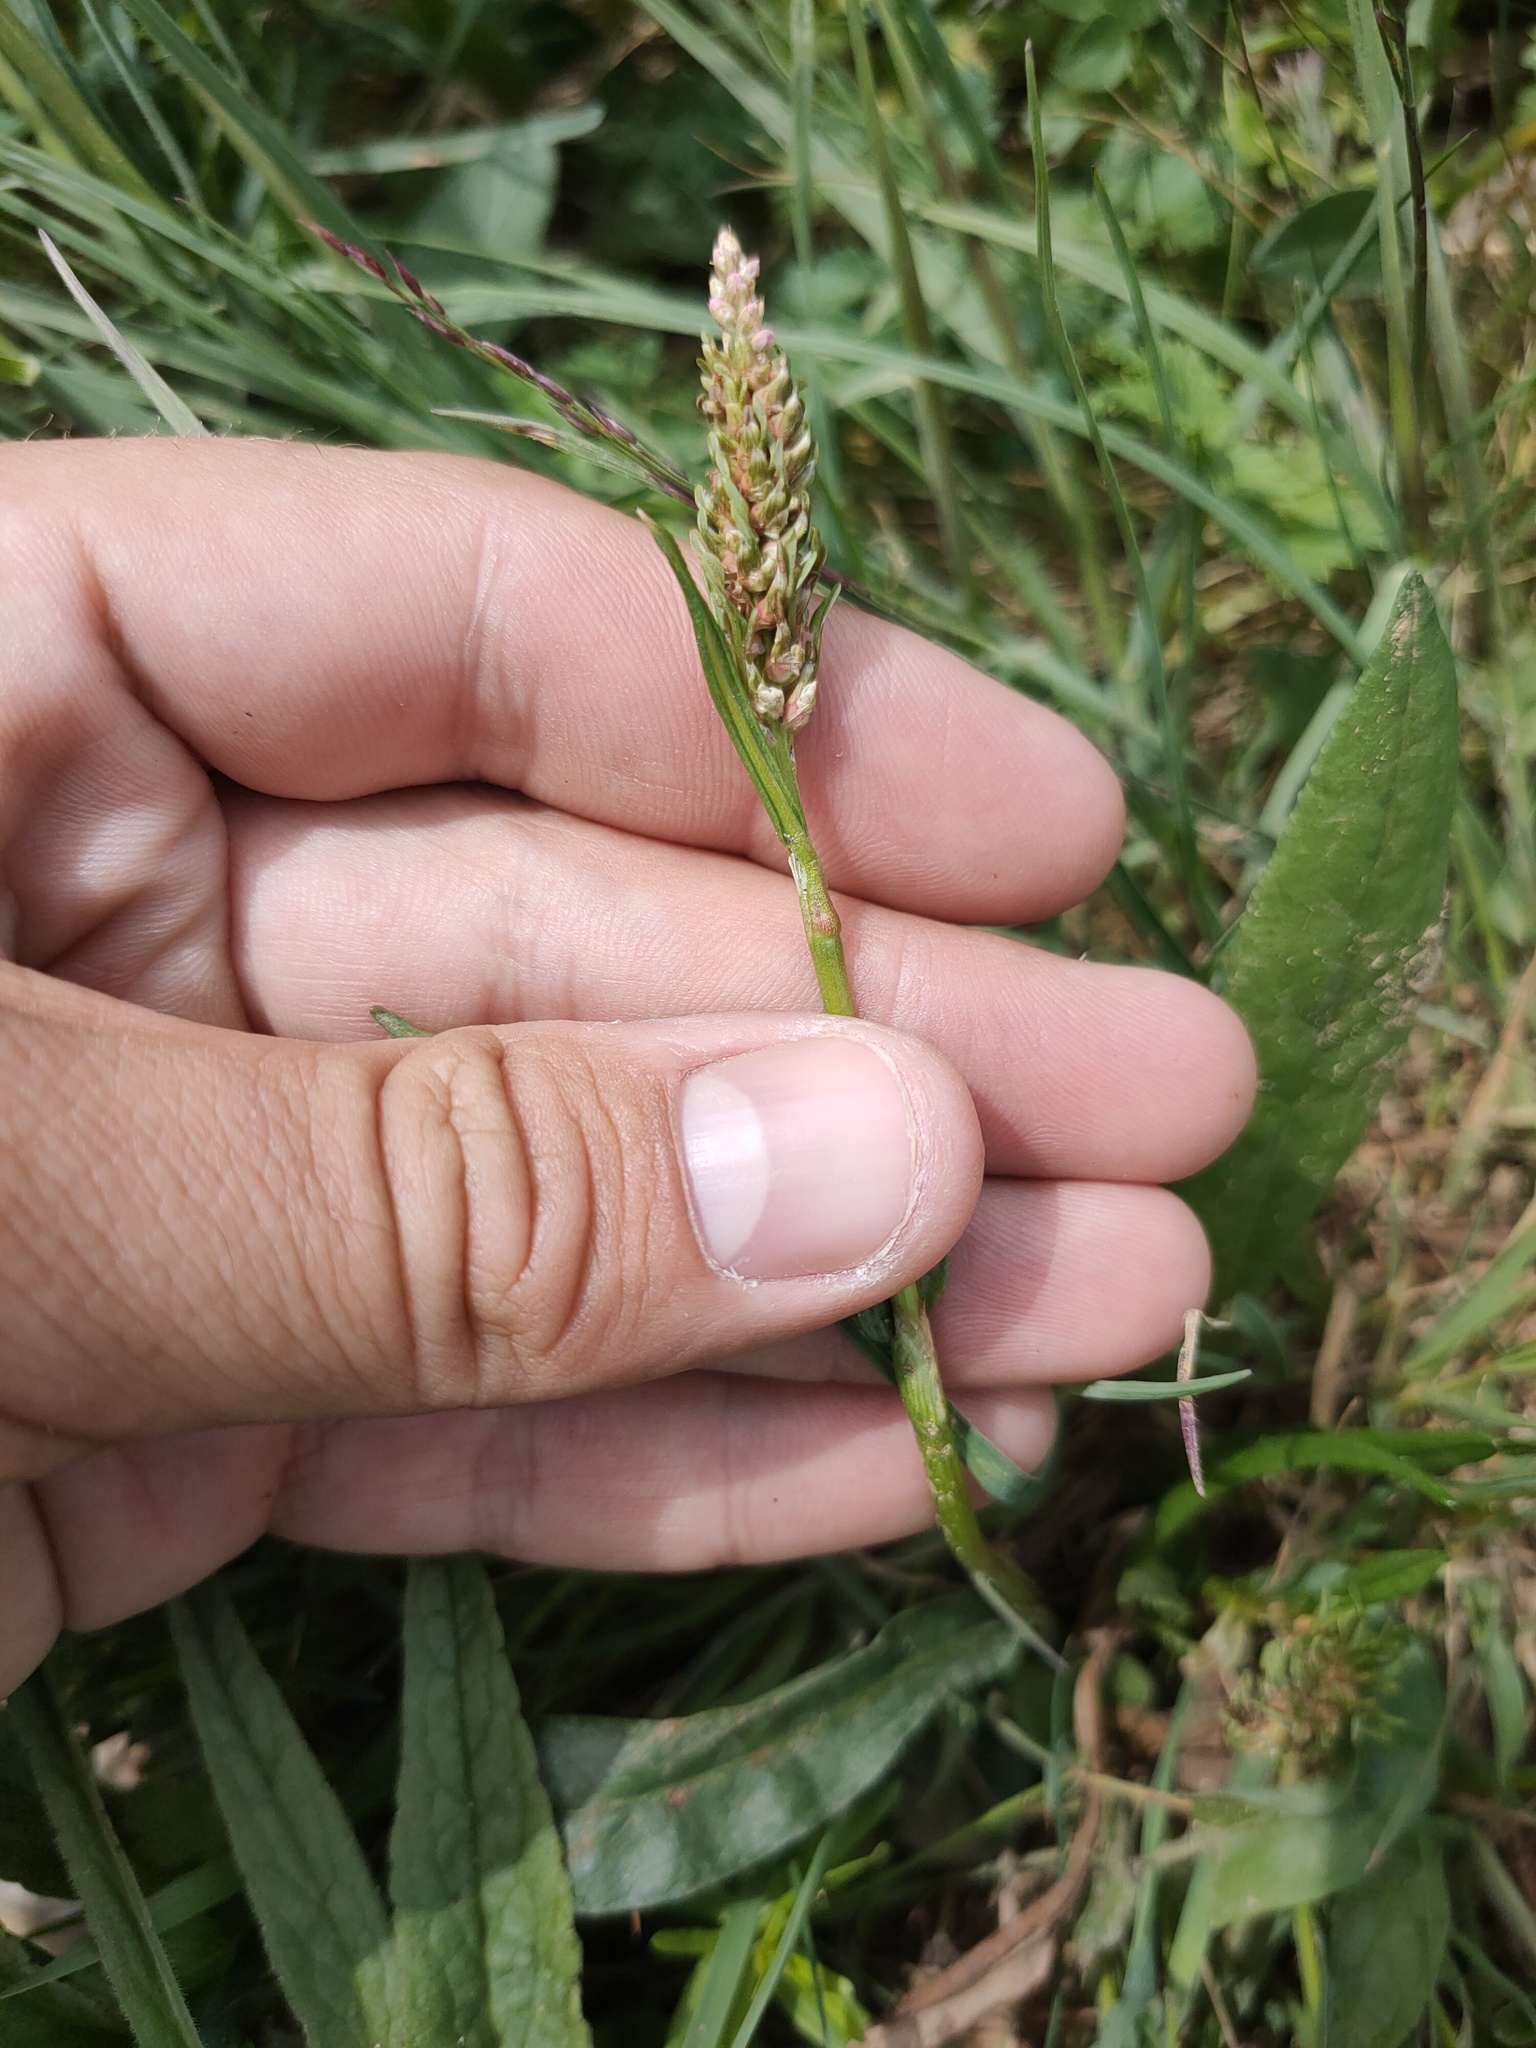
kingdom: Plantae
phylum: Tracheophyta
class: Magnoliopsida
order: Caryophyllales
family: Polygonaceae
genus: Bistorta
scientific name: Bistorta vivipara
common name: Alpine bistort
